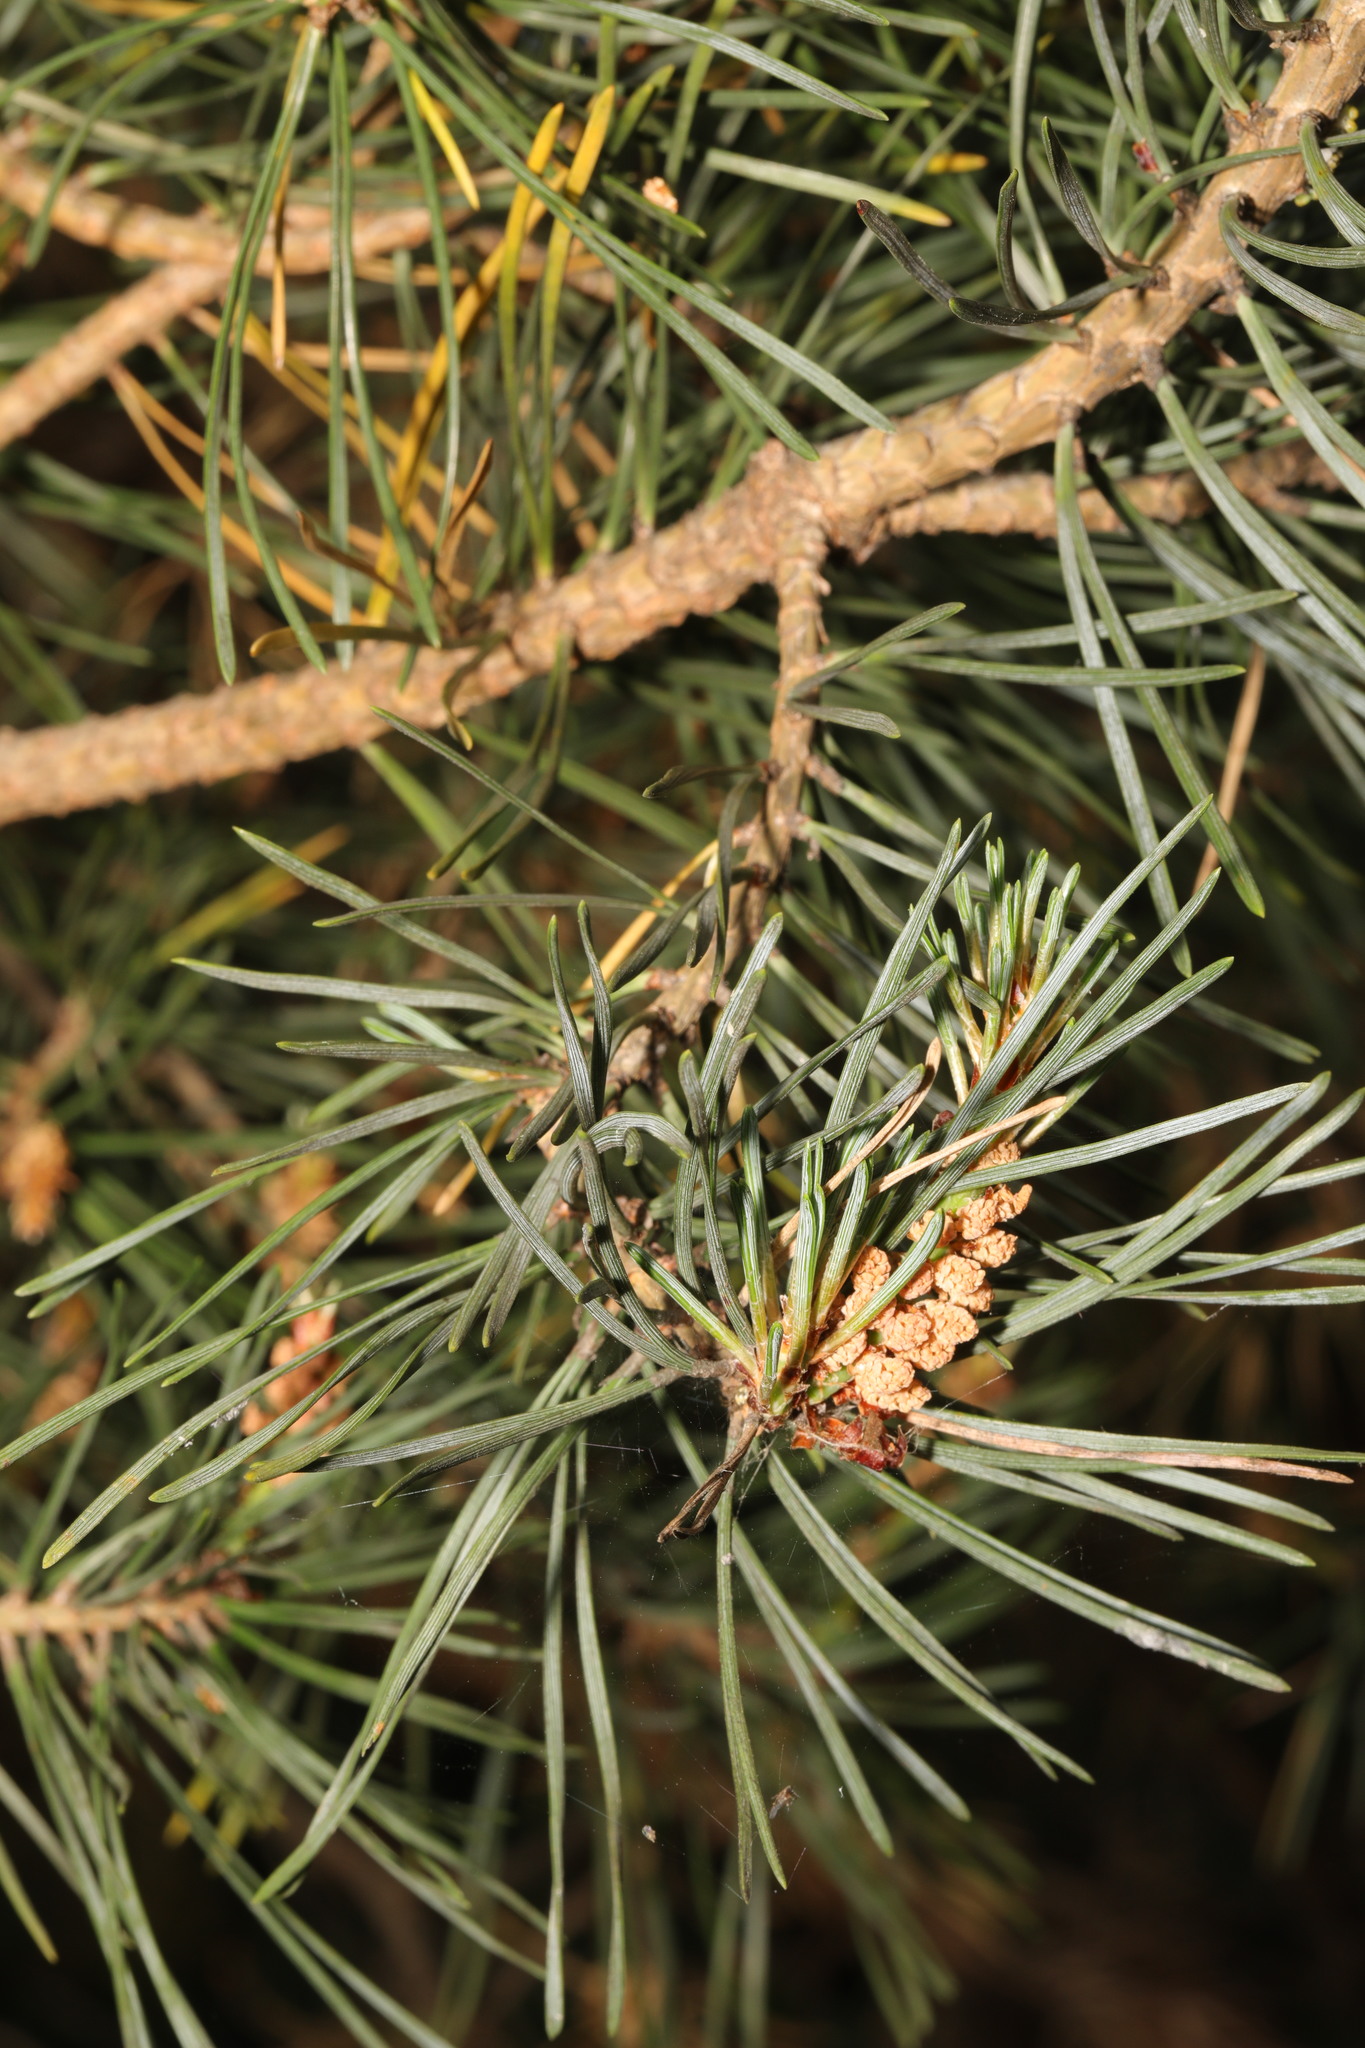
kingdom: Plantae
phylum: Tracheophyta
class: Pinopsida
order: Pinales
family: Pinaceae
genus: Pinus
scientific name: Pinus sylvestris
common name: Scots pine
